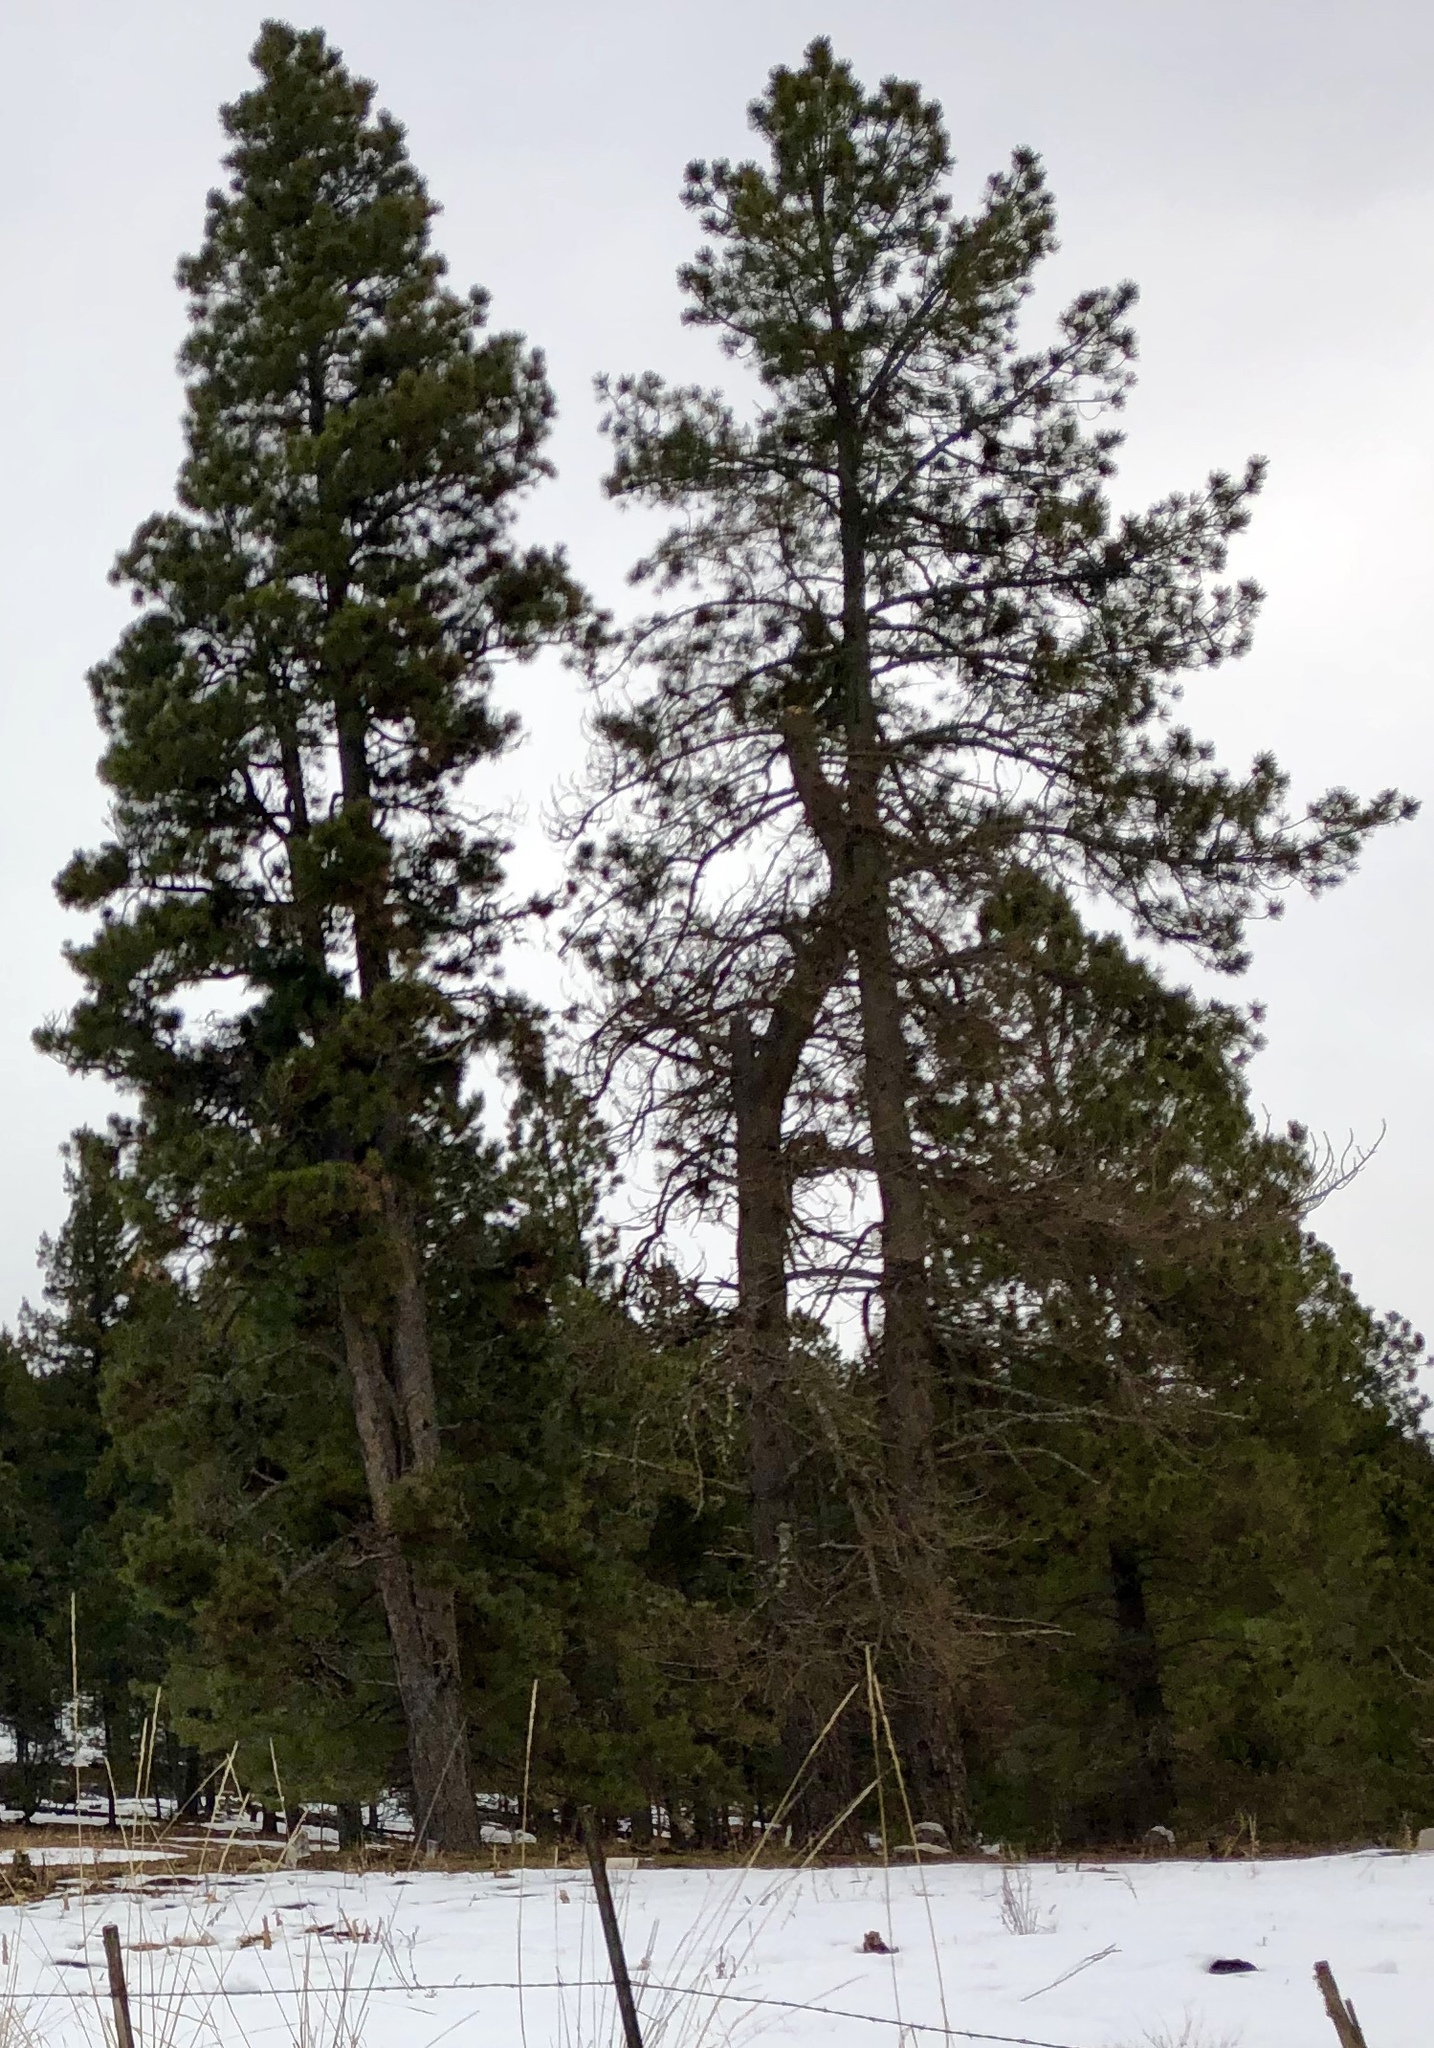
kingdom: Plantae
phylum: Tracheophyta
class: Pinopsida
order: Pinales
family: Pinaceae
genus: Pinus
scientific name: Pinus ponderosa
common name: Western yellow-pine
